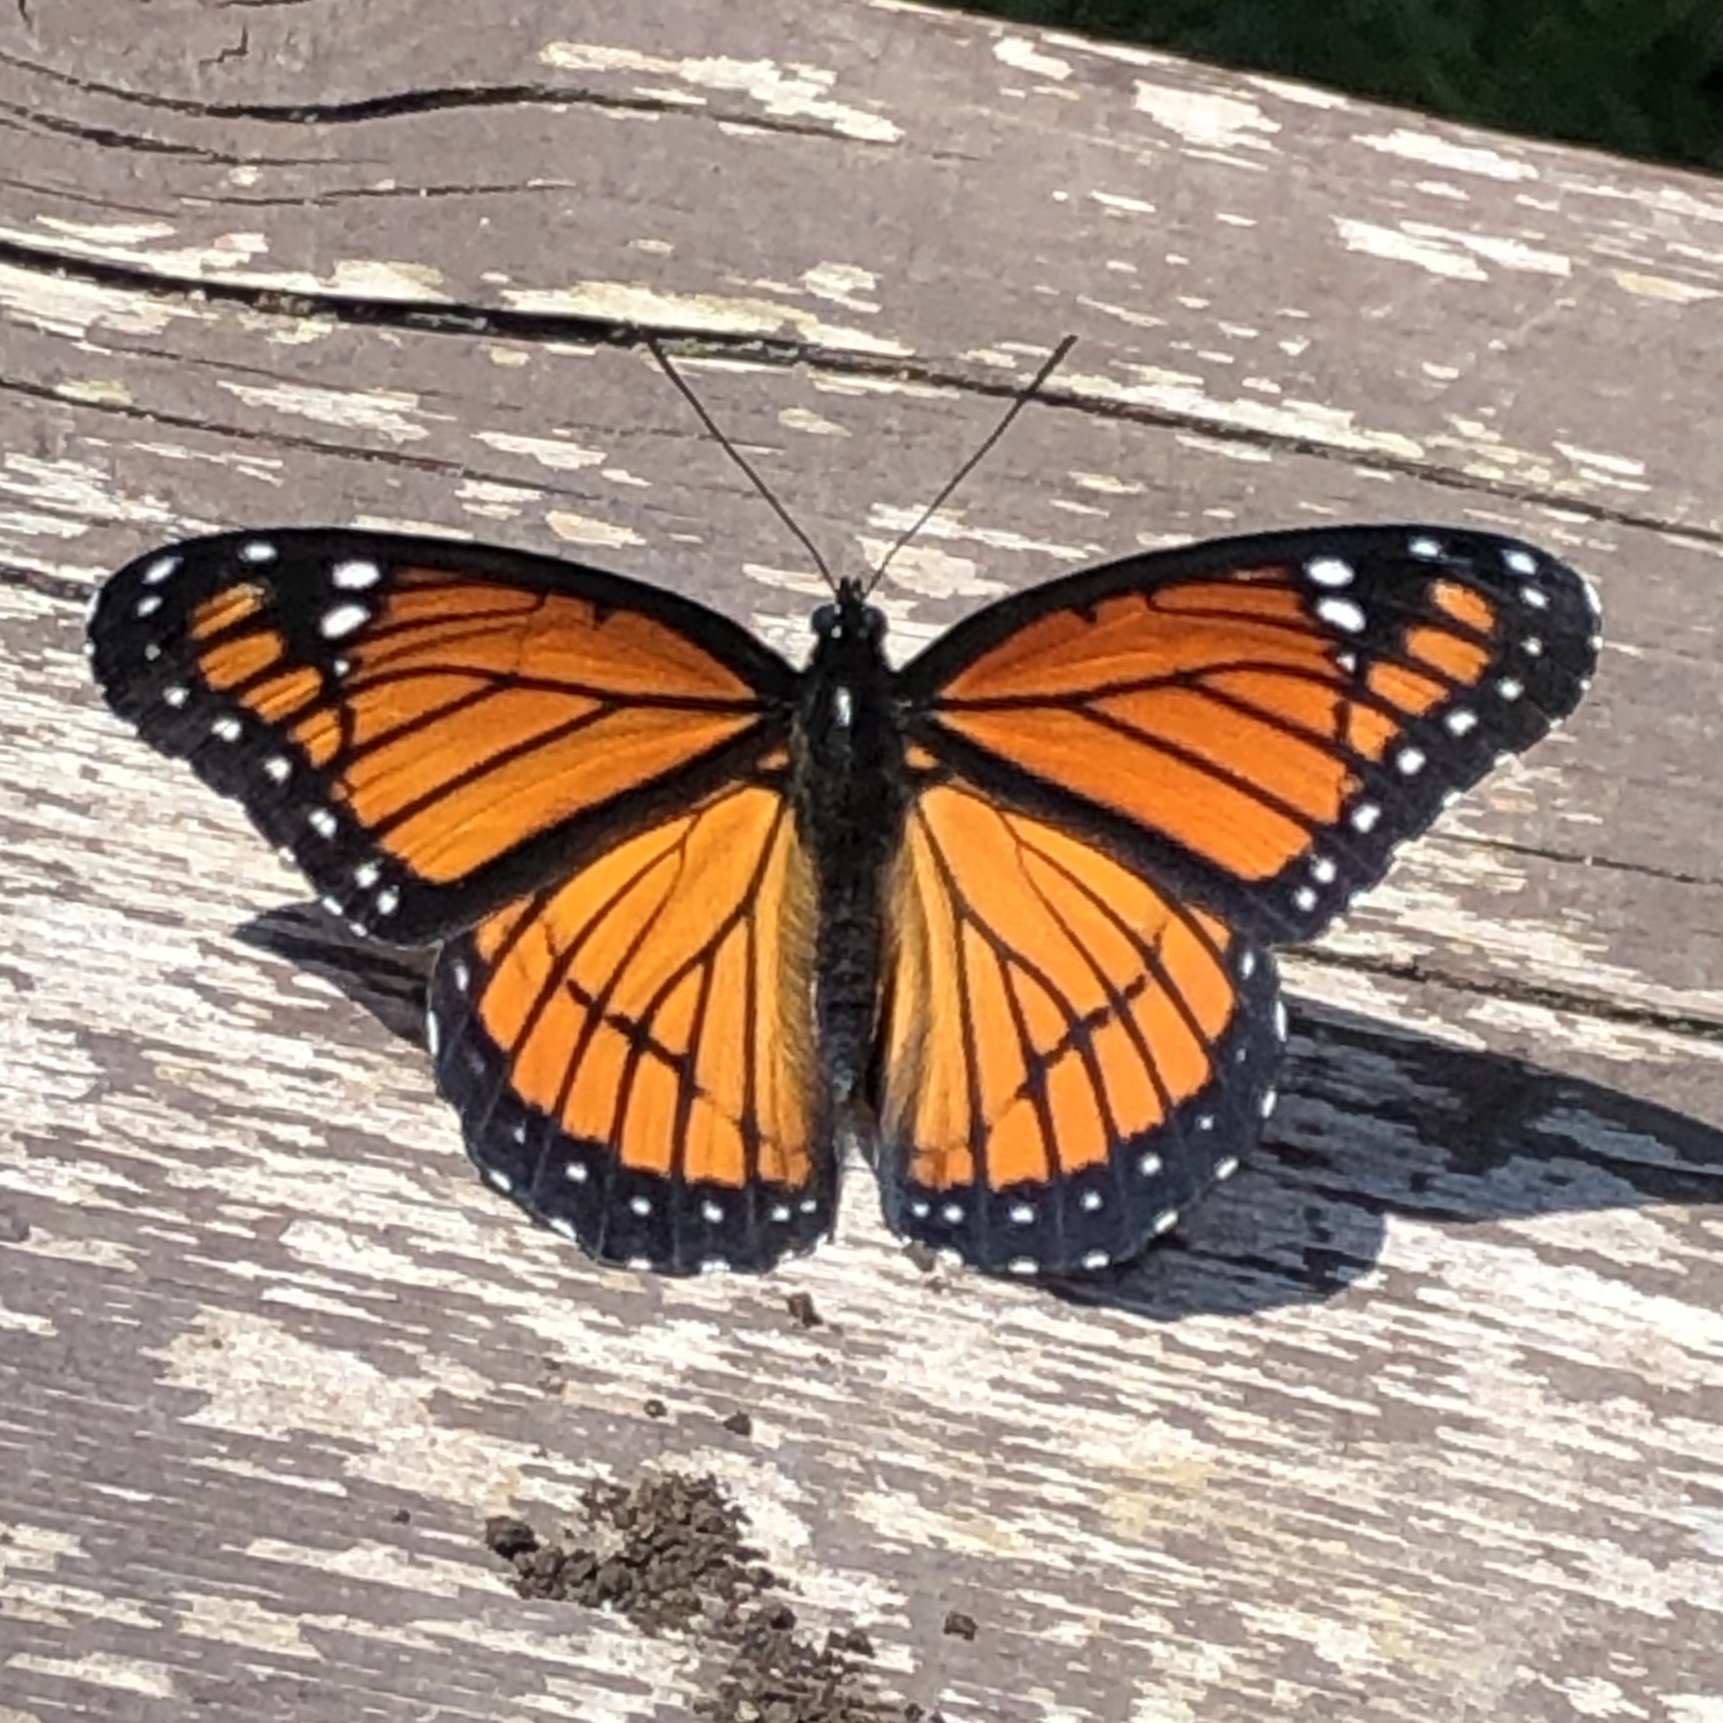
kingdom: Animalia
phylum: Arthropoda
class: Insecta
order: Lepidoptera
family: Nymphalidae
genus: Limenitis
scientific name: Limenitis archippus
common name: Viceroy
